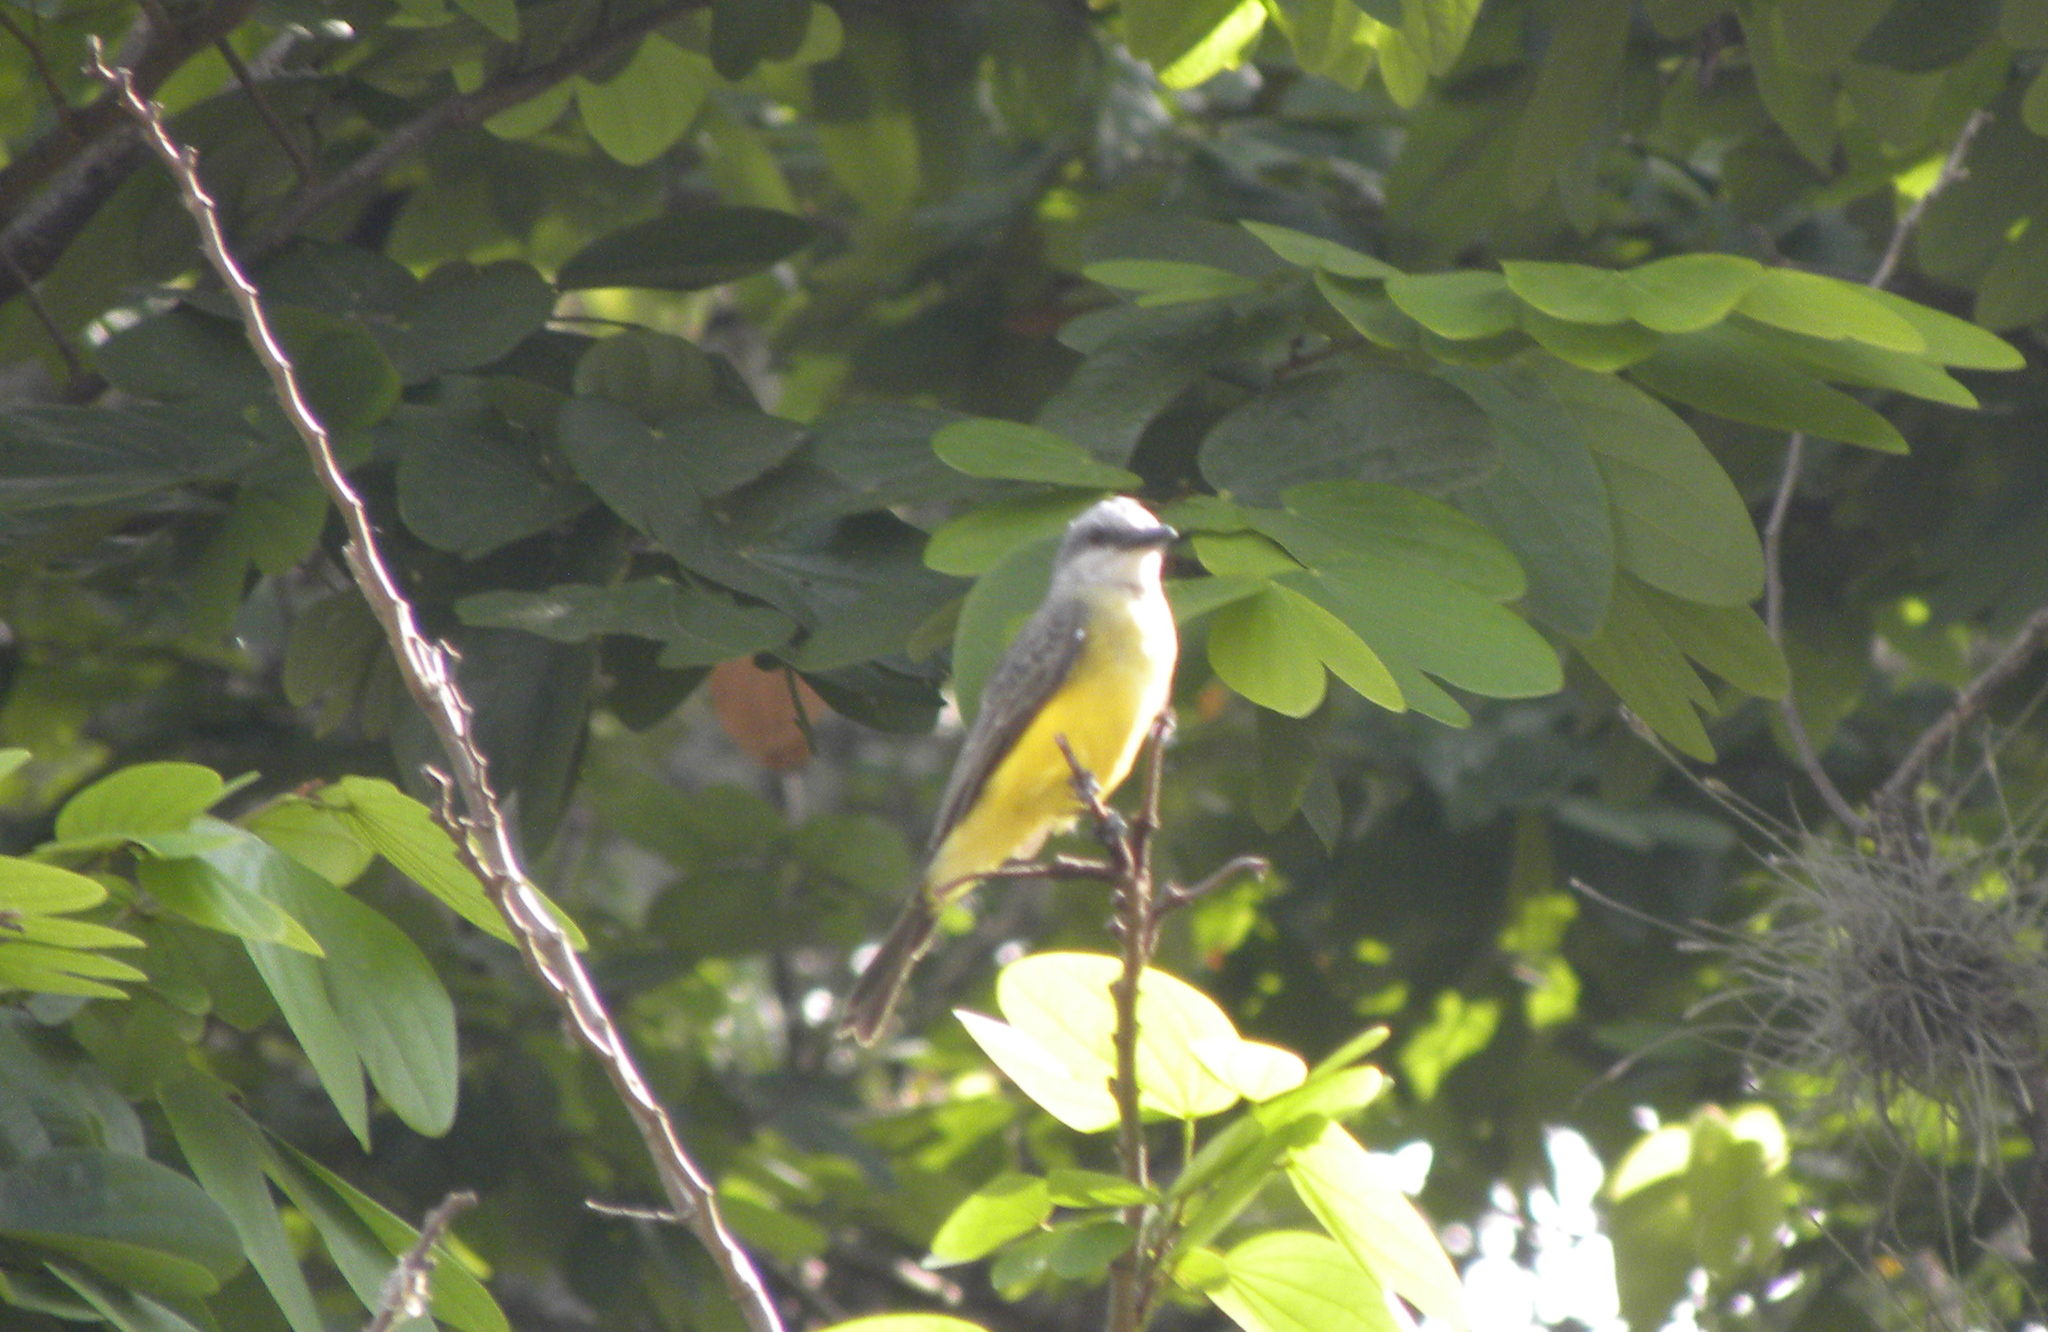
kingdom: Animalia
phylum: Chordata
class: Aves
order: Passeriformes
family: Tyrannidae
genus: Tyrannus
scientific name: Tyrannus melancholicus
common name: Tropical kingbird
